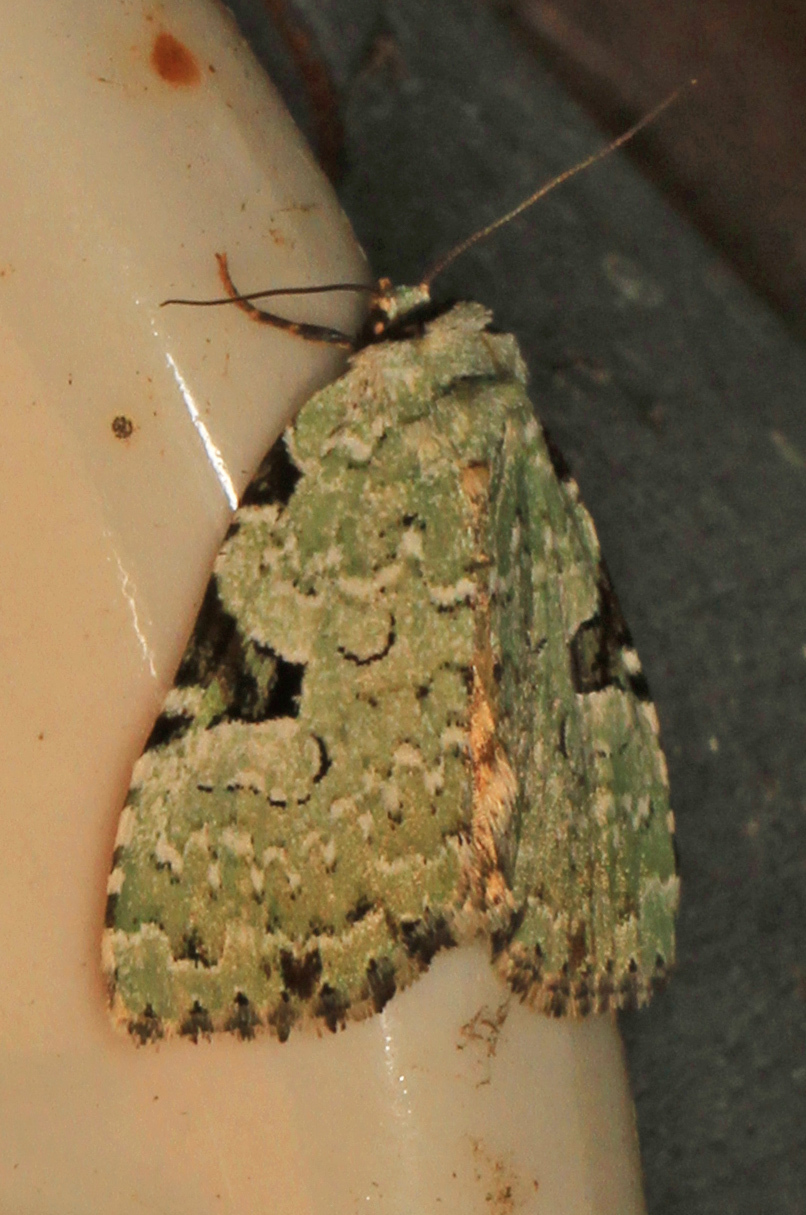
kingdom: Animalia
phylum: Arthropoda
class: Insecta
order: Lepidoptera
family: Noctuidae
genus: Leuconycta
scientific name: Leuconycta diphteroides
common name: Green leuconycta moth
